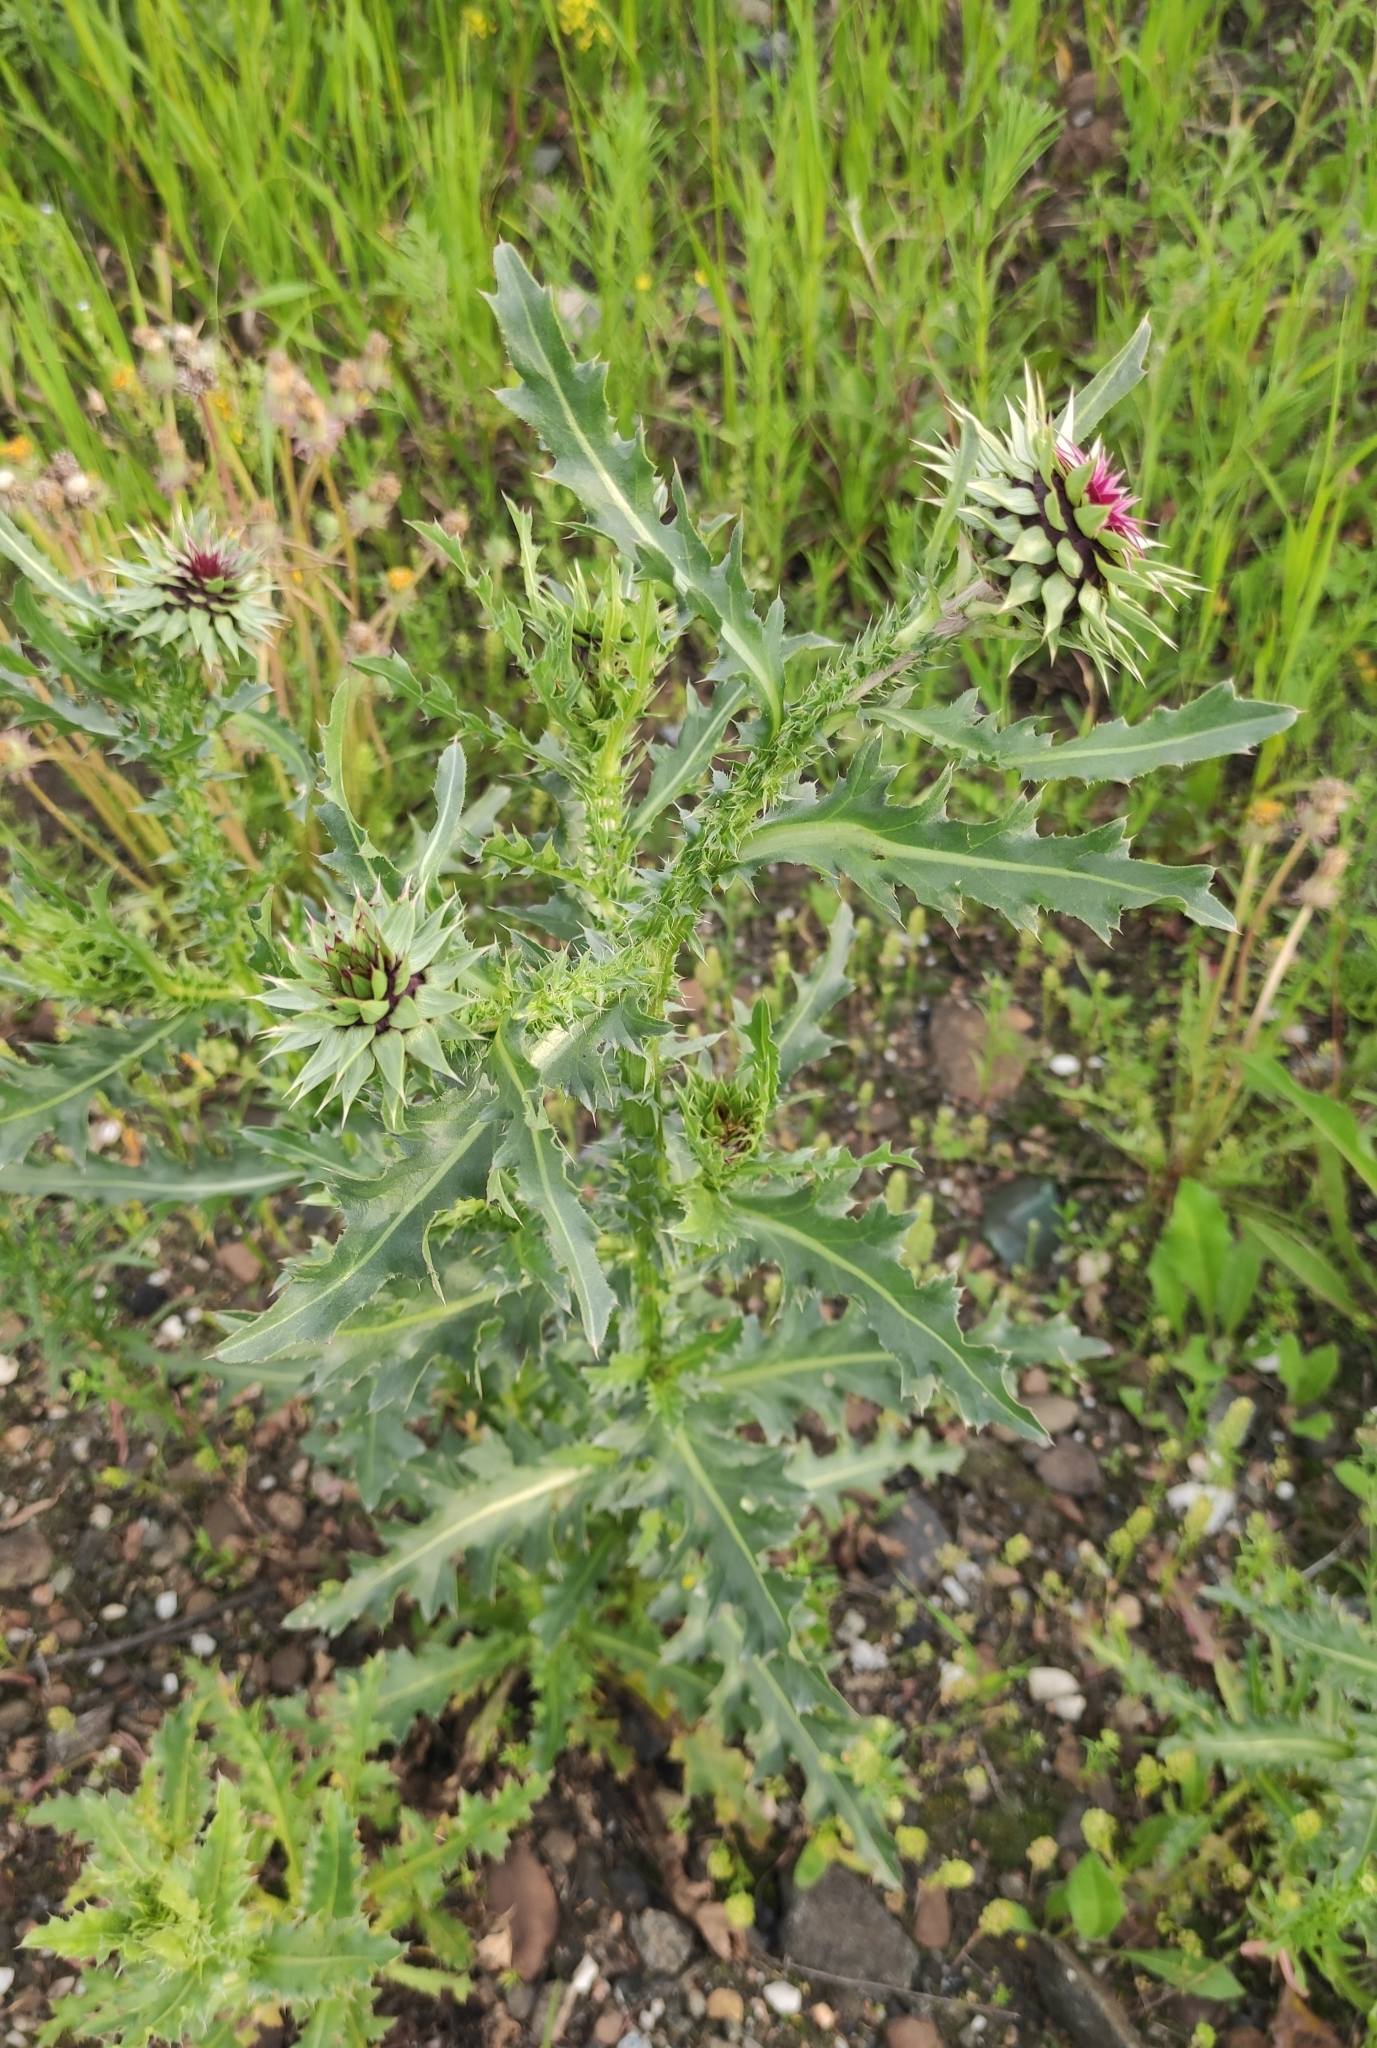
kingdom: Plantae
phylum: Tracheophyta
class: Magnoliopsida
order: Asterales
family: Asteraceae
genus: Carduus
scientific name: Carduus nutans
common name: Musk thistle
